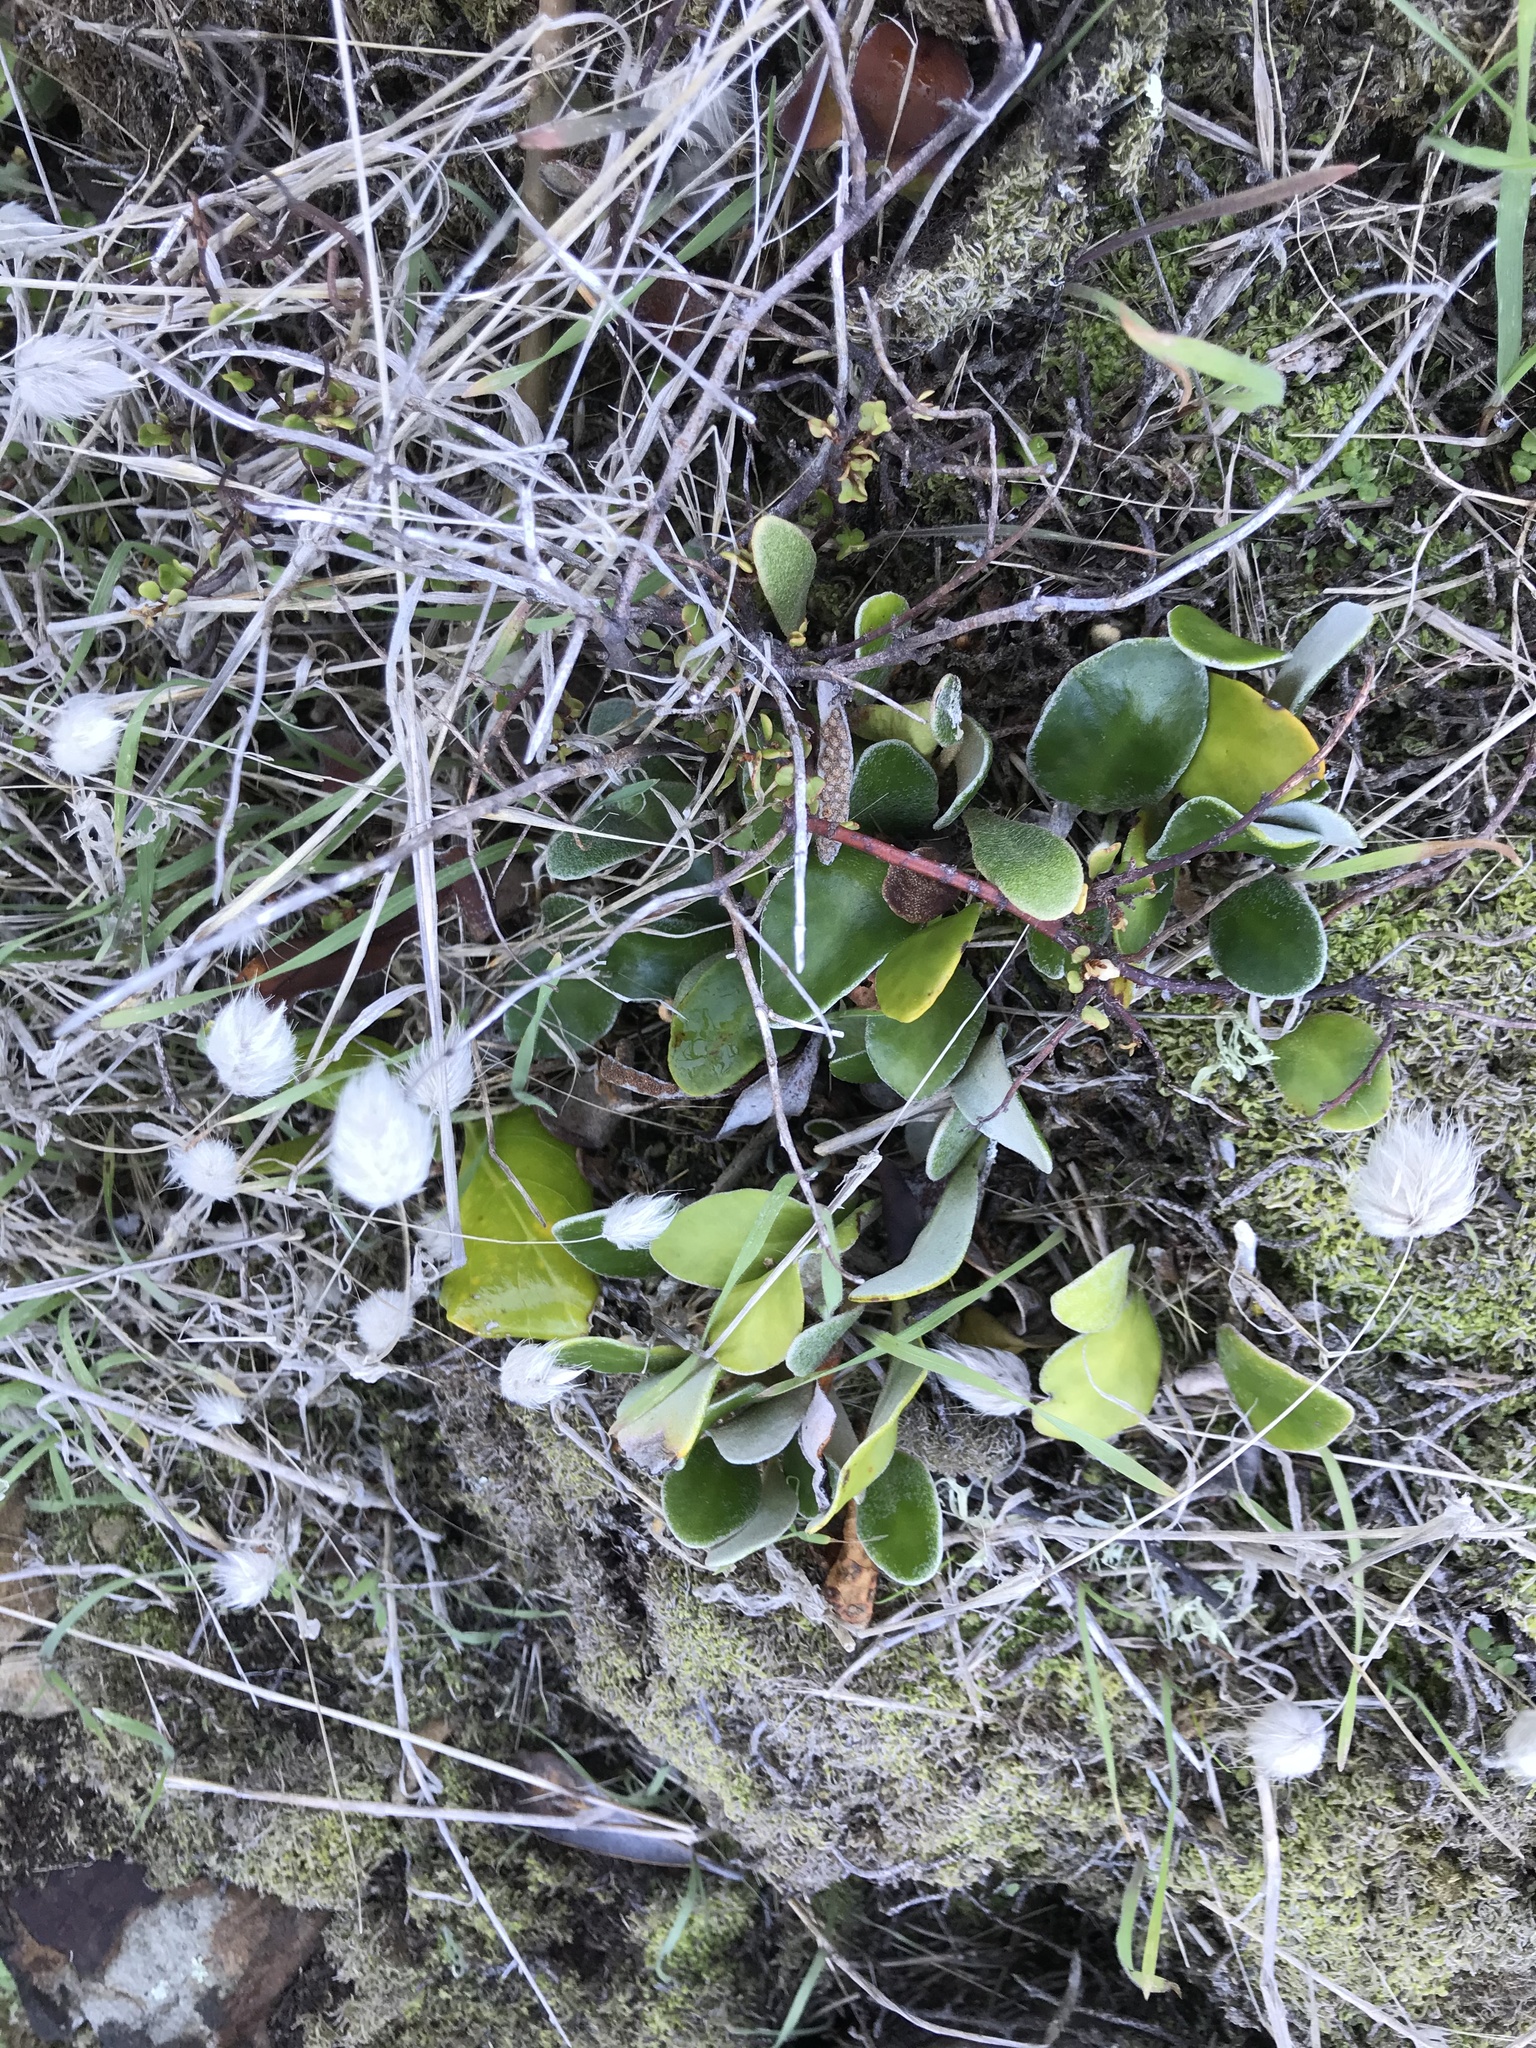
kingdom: Plantae
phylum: Tracheophyta
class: Polypodiopsida
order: Polypodiales
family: Polypodiaceae
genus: Pyrrosia
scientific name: Pyrrosia eleagnifolia
